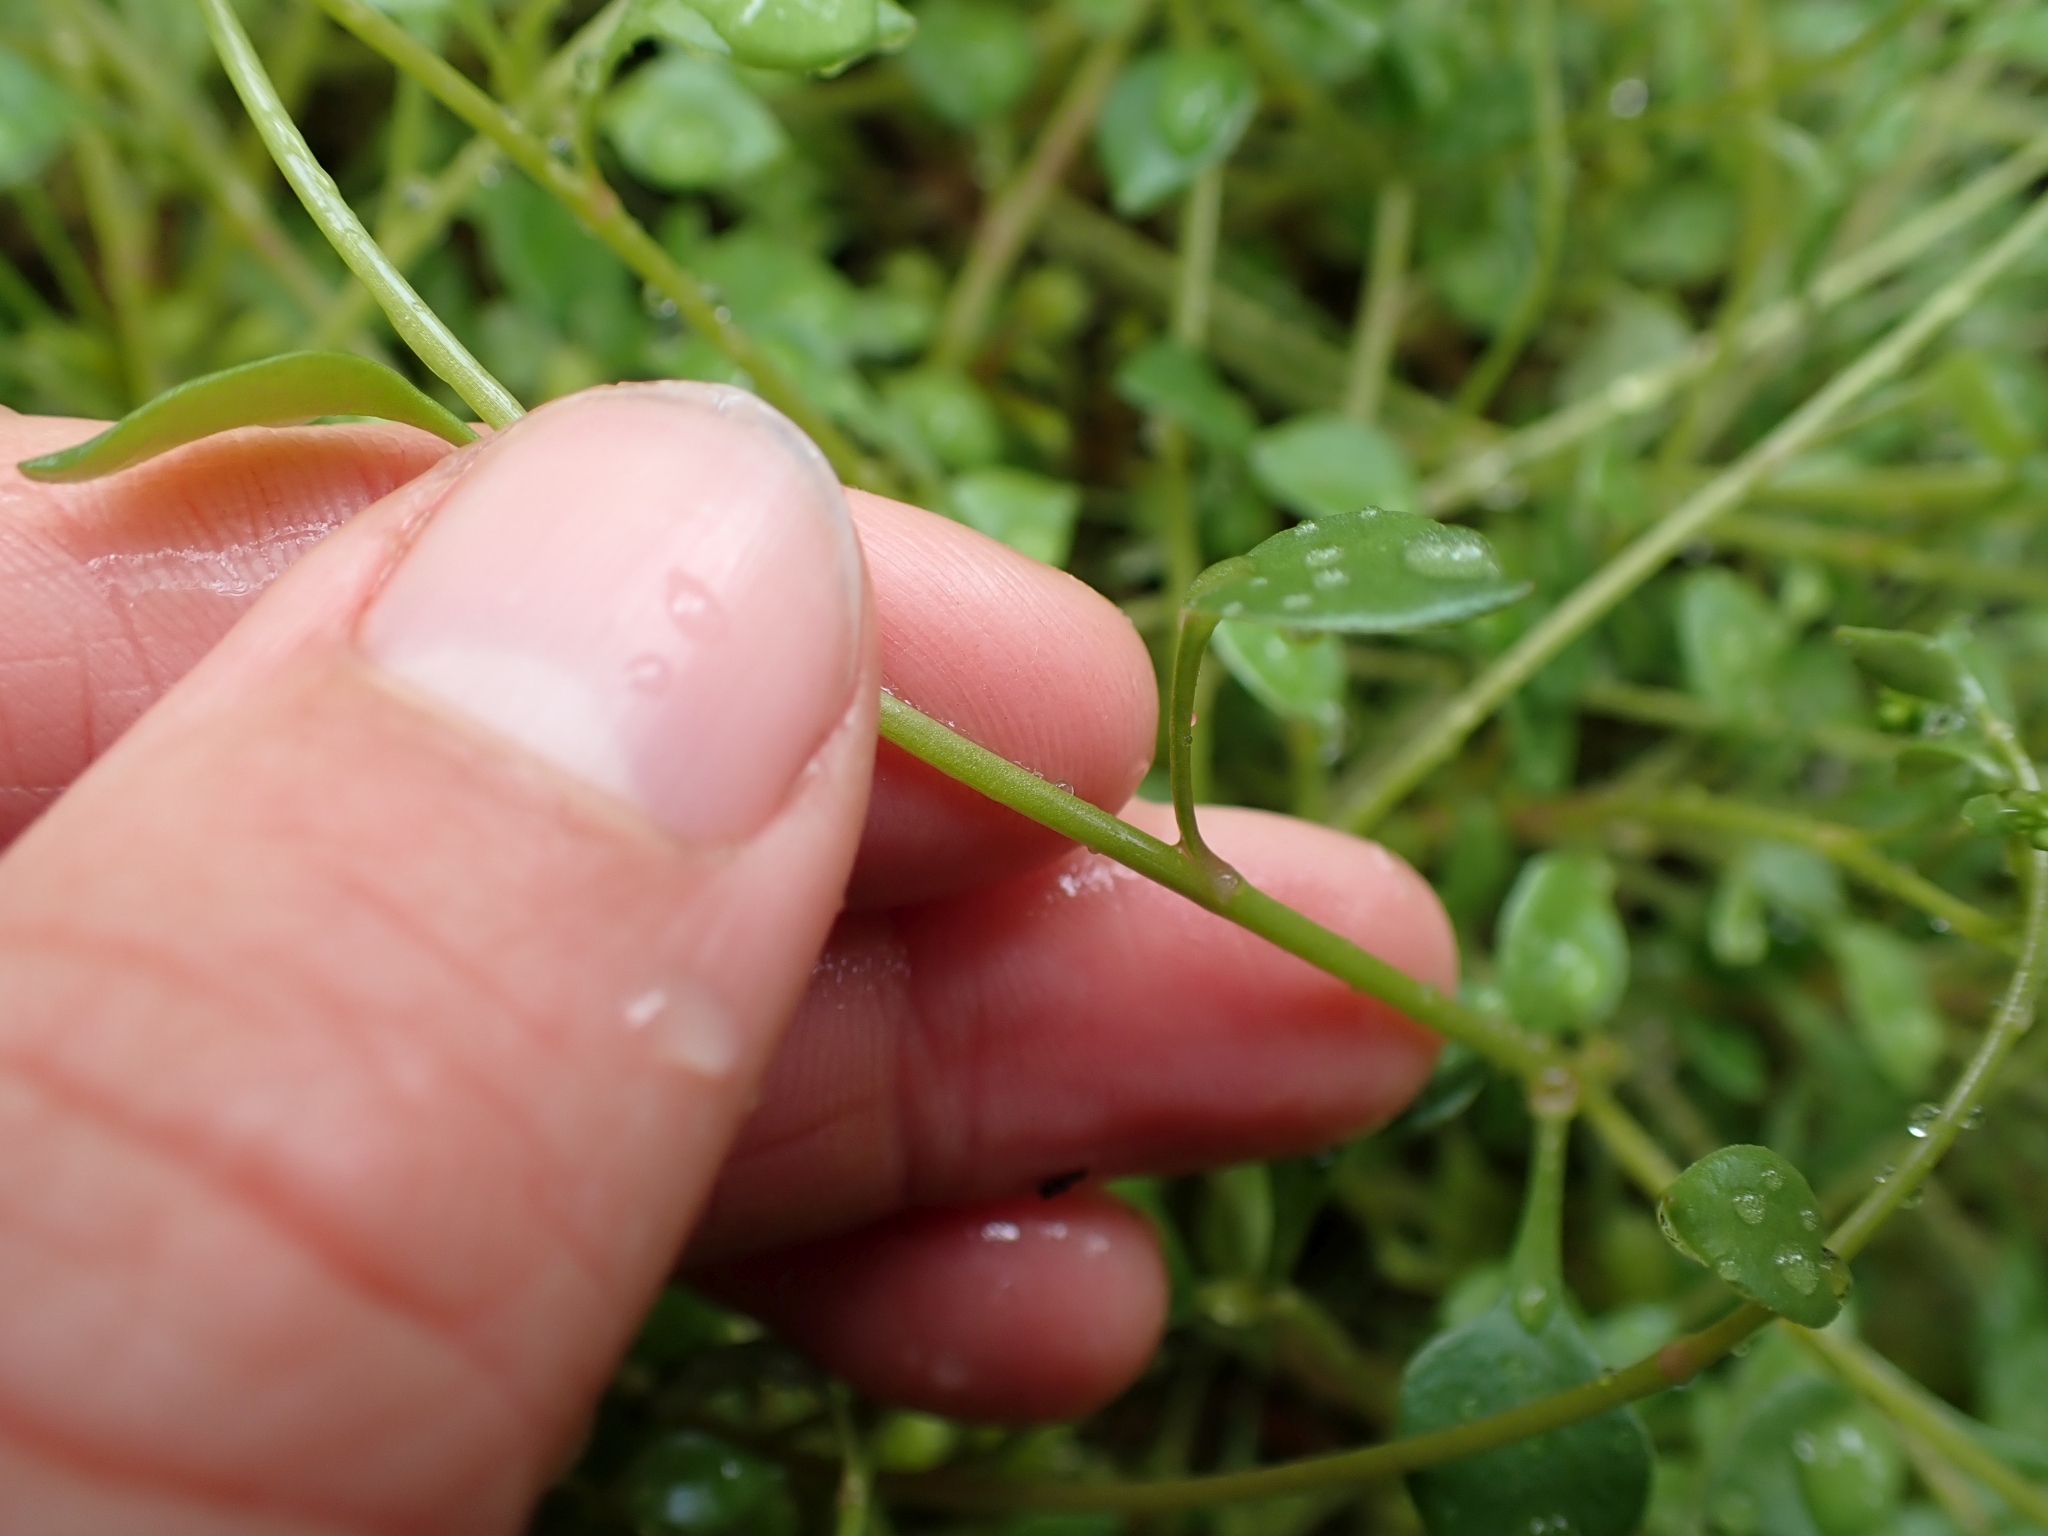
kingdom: Plantae
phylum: Tracheophyta
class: Magnoliopsida
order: Caryophyllales
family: Montiaceae
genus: Montia
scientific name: Montia parvifolia
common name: Small-leaved blinks
